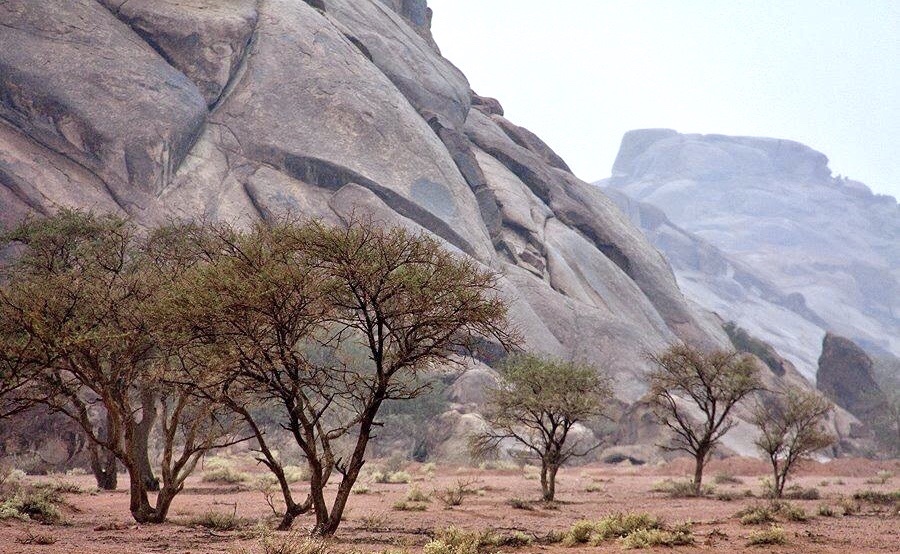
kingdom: Plantae
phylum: Tracheophyta
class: Magnoliopsida
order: Fabales
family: Fabaceae
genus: Vachellia
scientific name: Vachellia tortilis
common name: Umbrella thorn acacia
